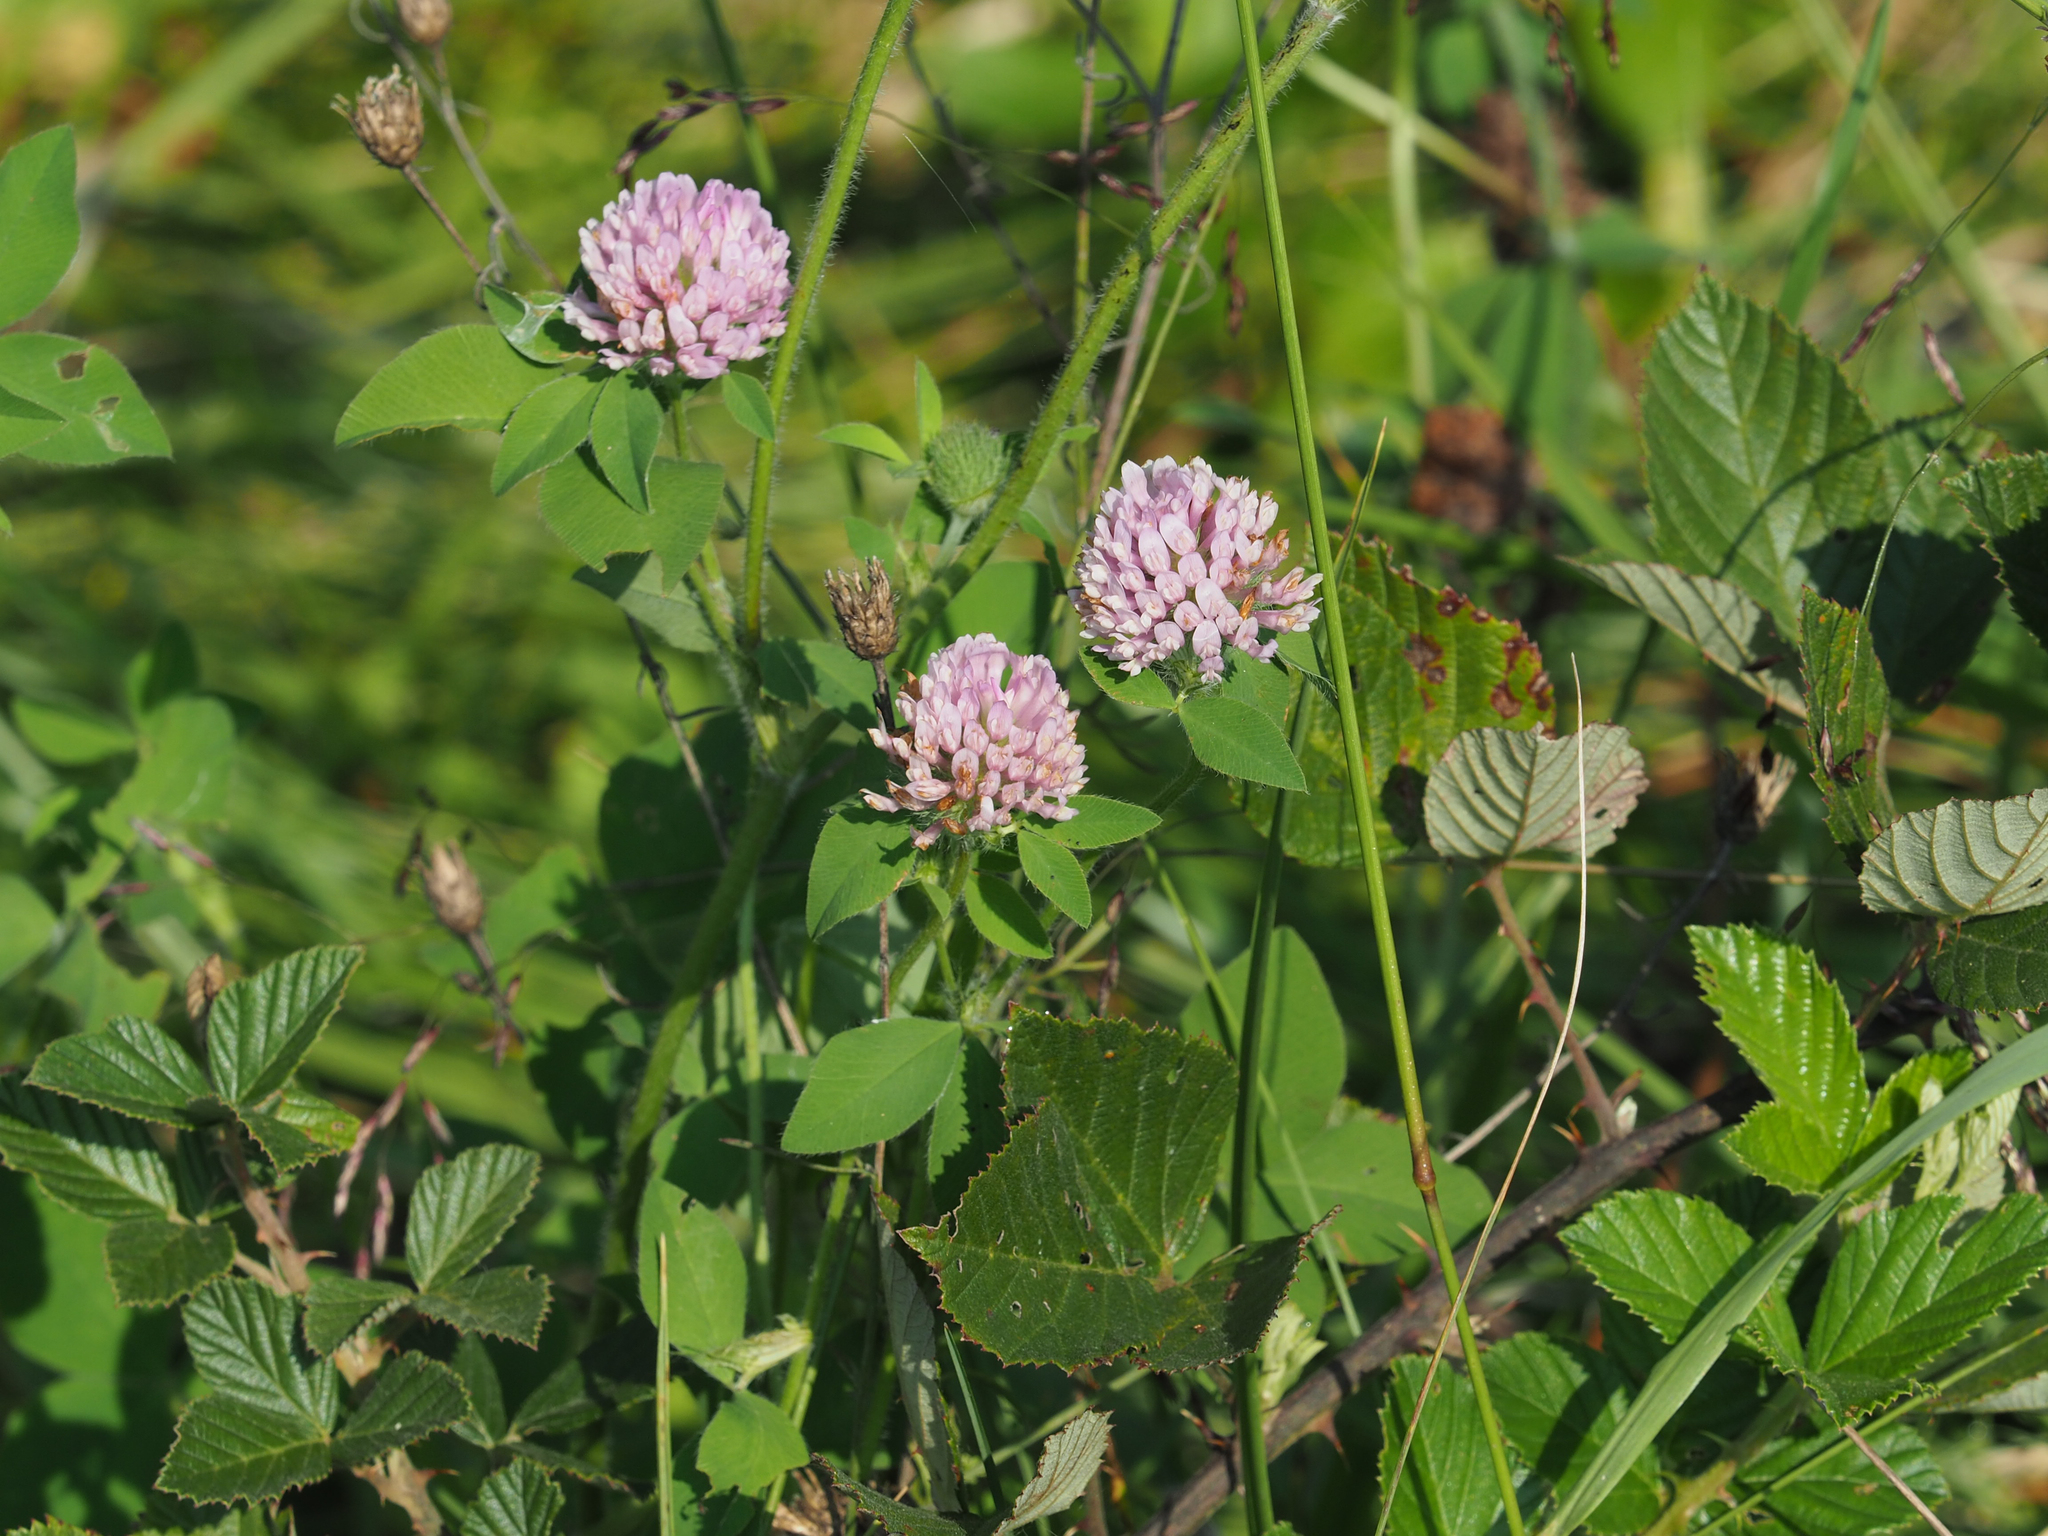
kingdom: Plantae
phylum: Tracheophyta
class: Magnoliopsida
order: Fabales
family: Fabaceae
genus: Trifolium
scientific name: Trifolium pratense
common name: Red clover
